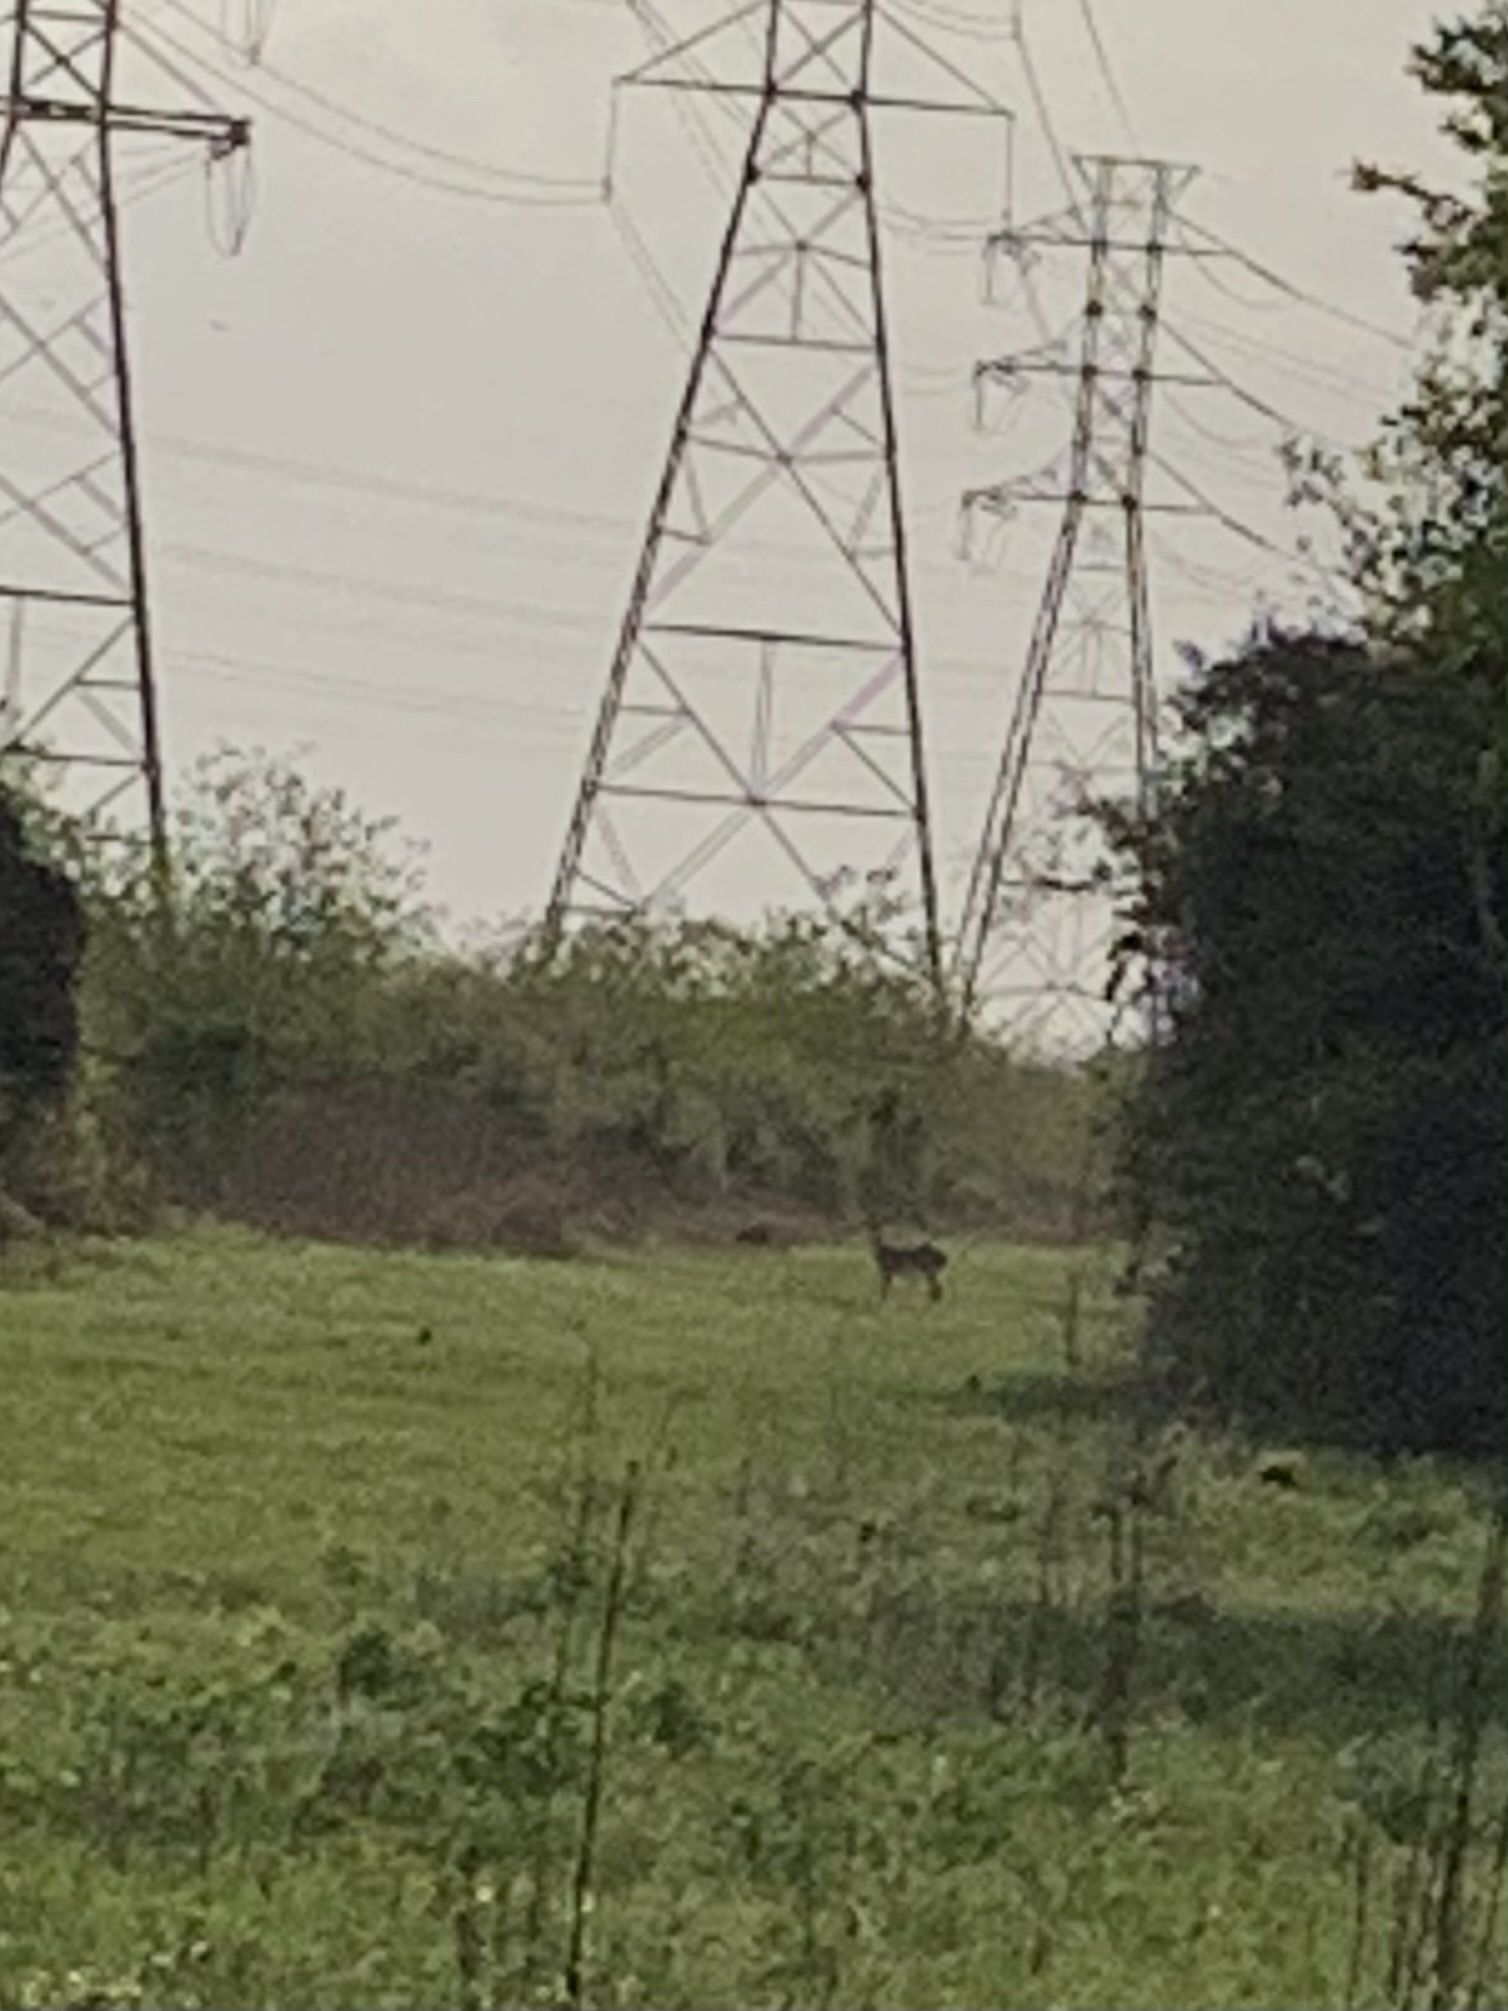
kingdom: Animalia
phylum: Chordata
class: Mammalia
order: Artiodactyla
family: Cervidae
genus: Odocoileus
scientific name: Odocoileus virginianus
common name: White-tailed deer
